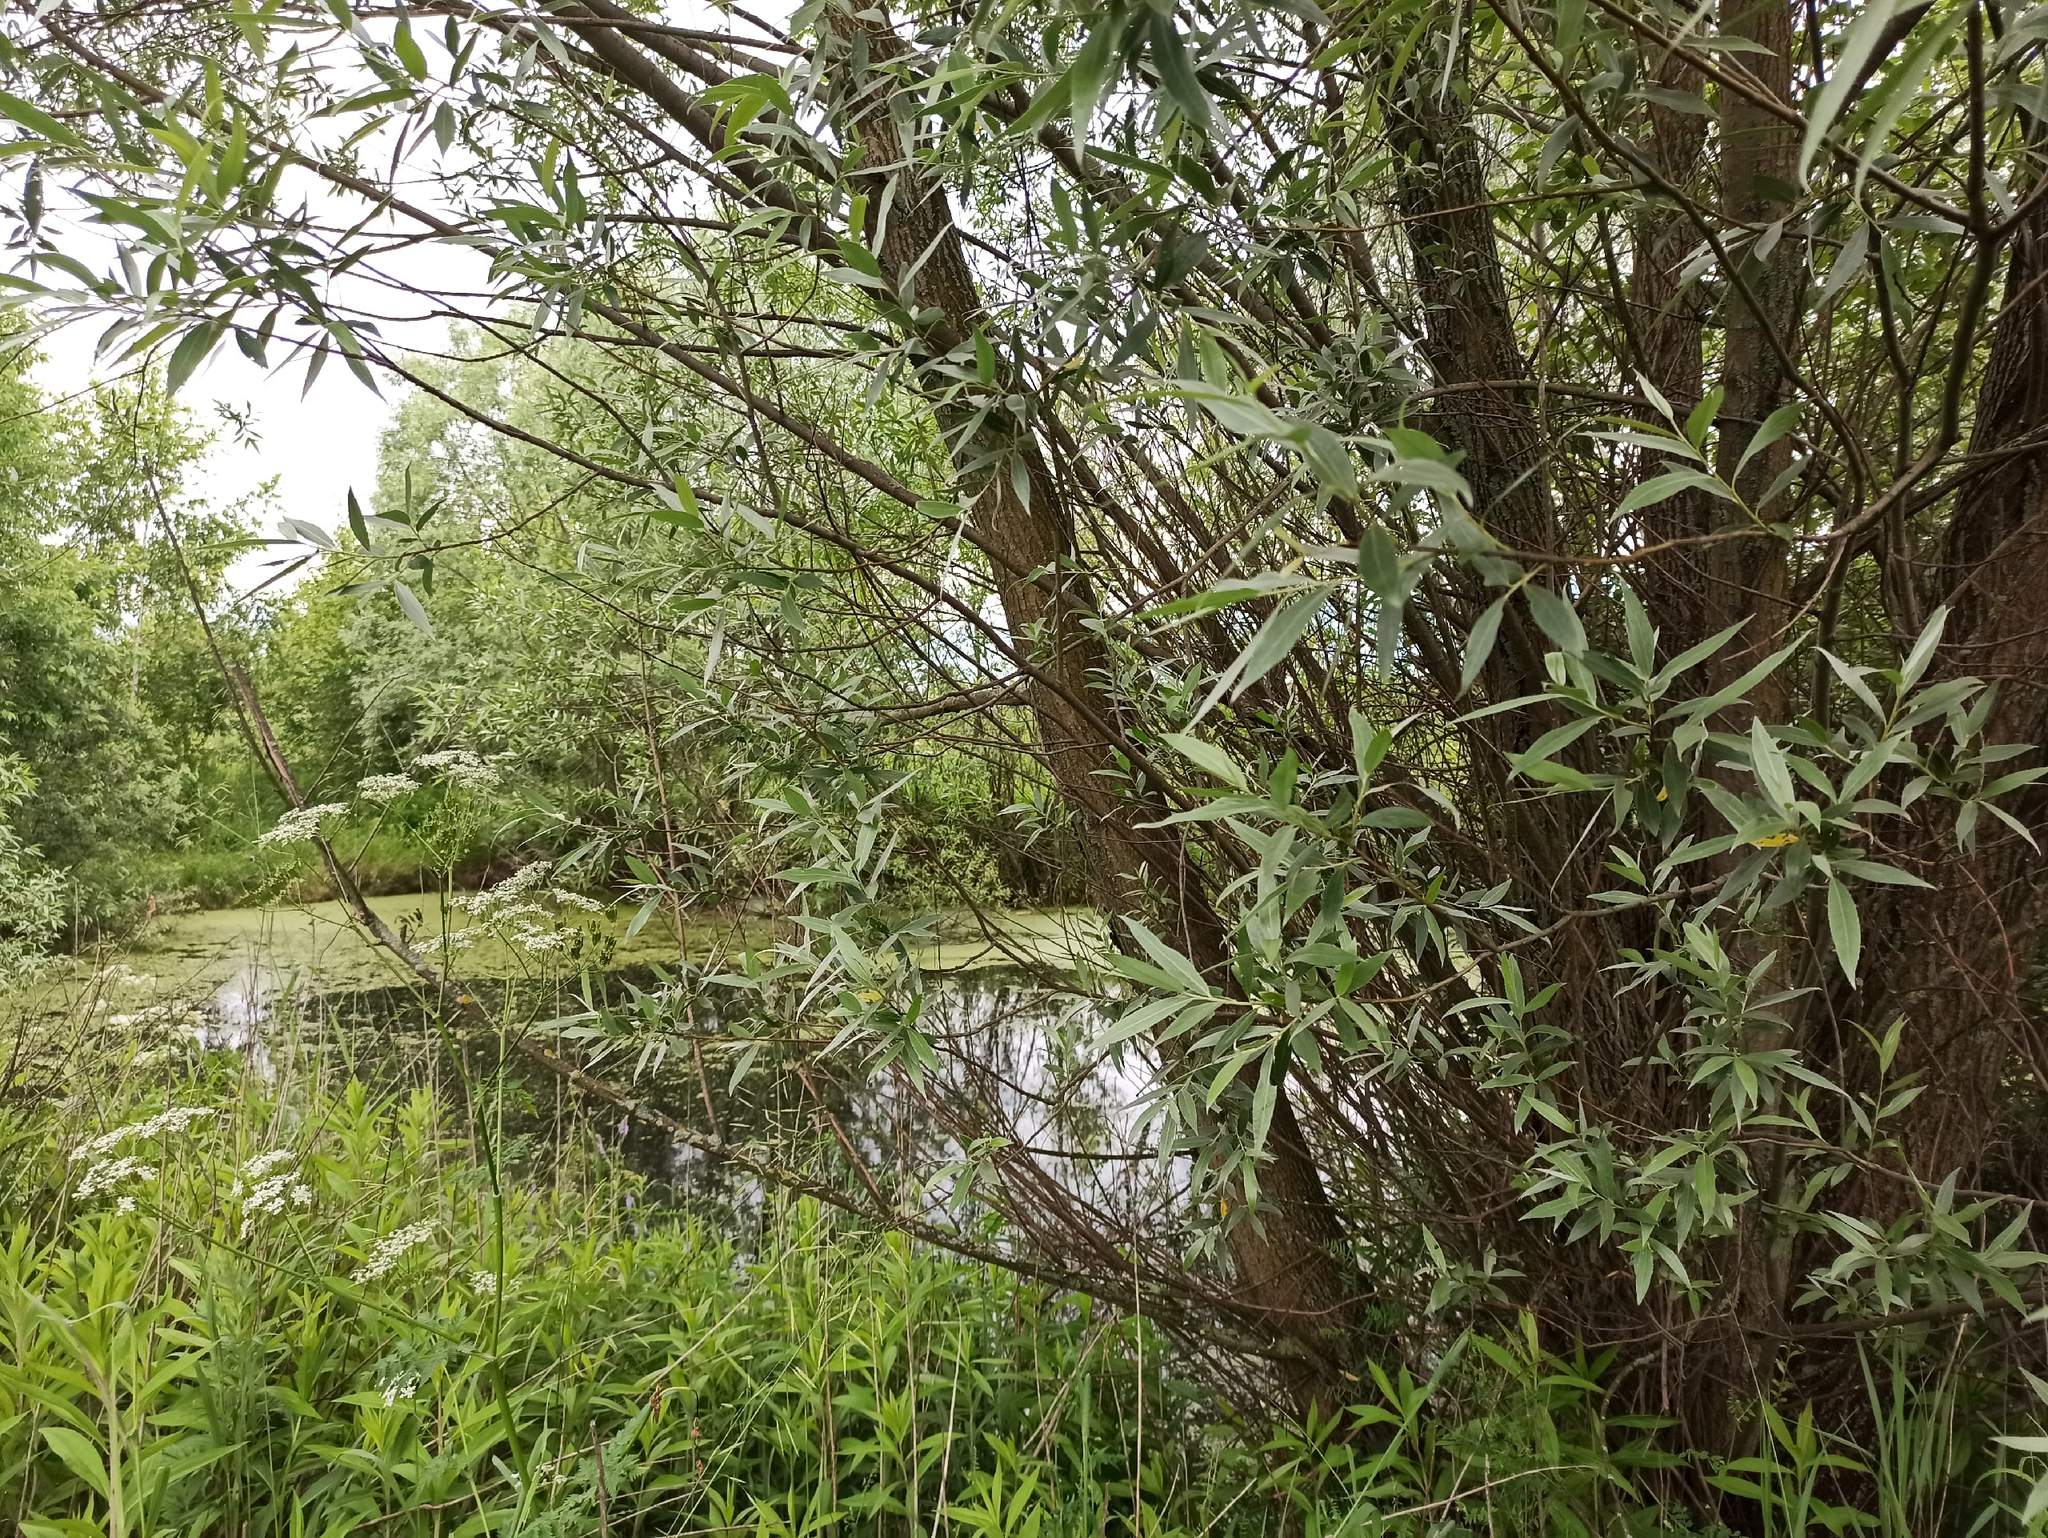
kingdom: Plantae
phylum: Tracheophyta
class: Magnoliopsida
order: Malpighiales
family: Salicaceae
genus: Salix
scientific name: Salix alba
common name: White willow
